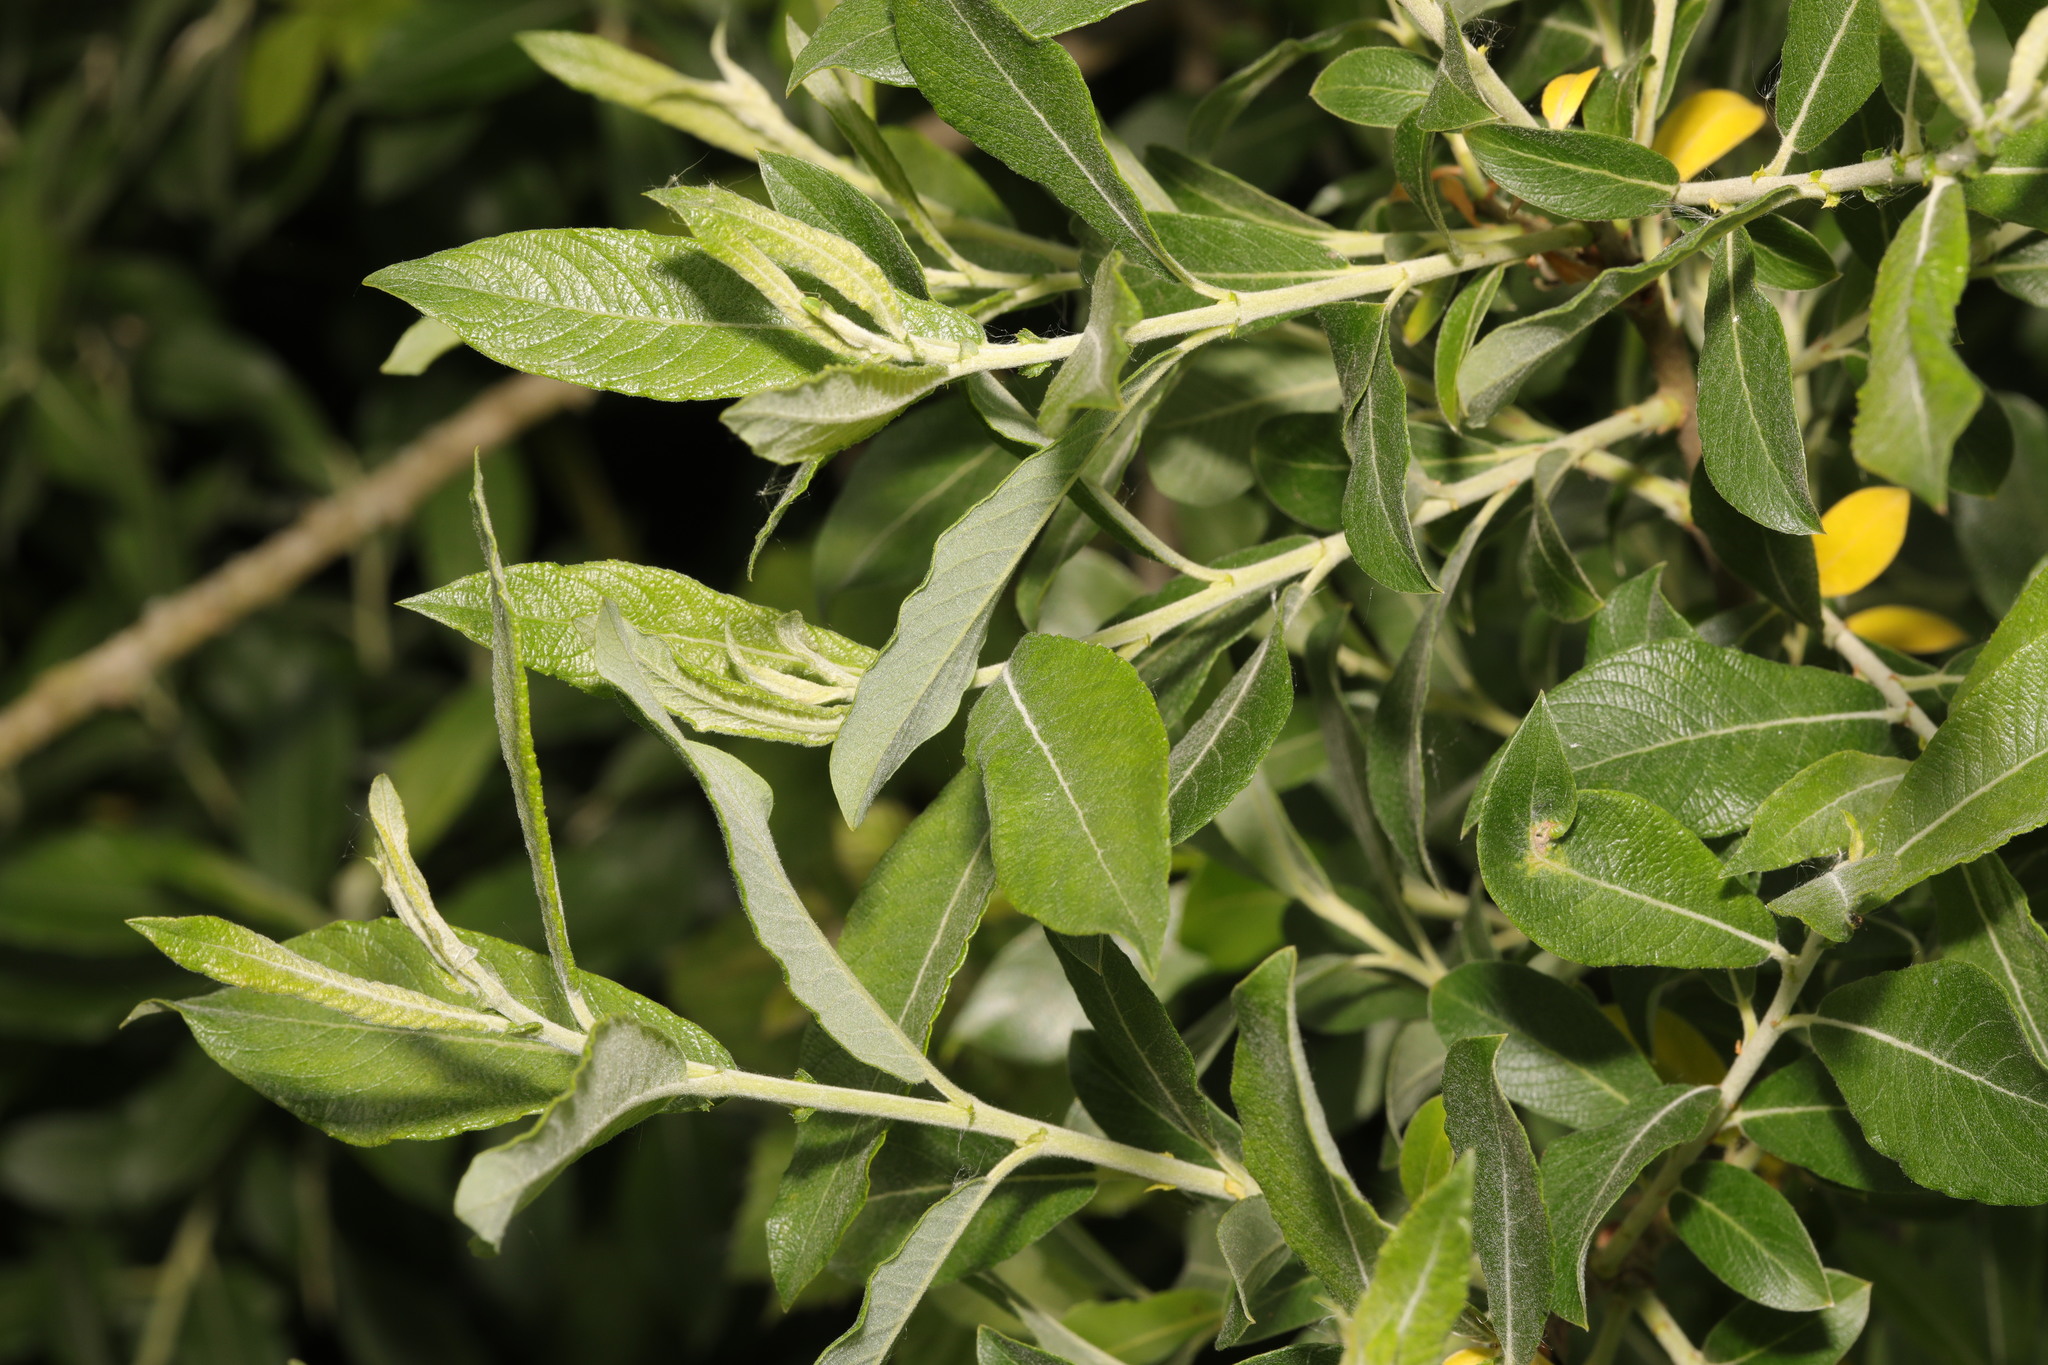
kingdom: Plantae
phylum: Tracheophyta
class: Magnoliopsida
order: Malpighiales
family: Salicaceae
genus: Salix
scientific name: Salix cinerea
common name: Common sallow
